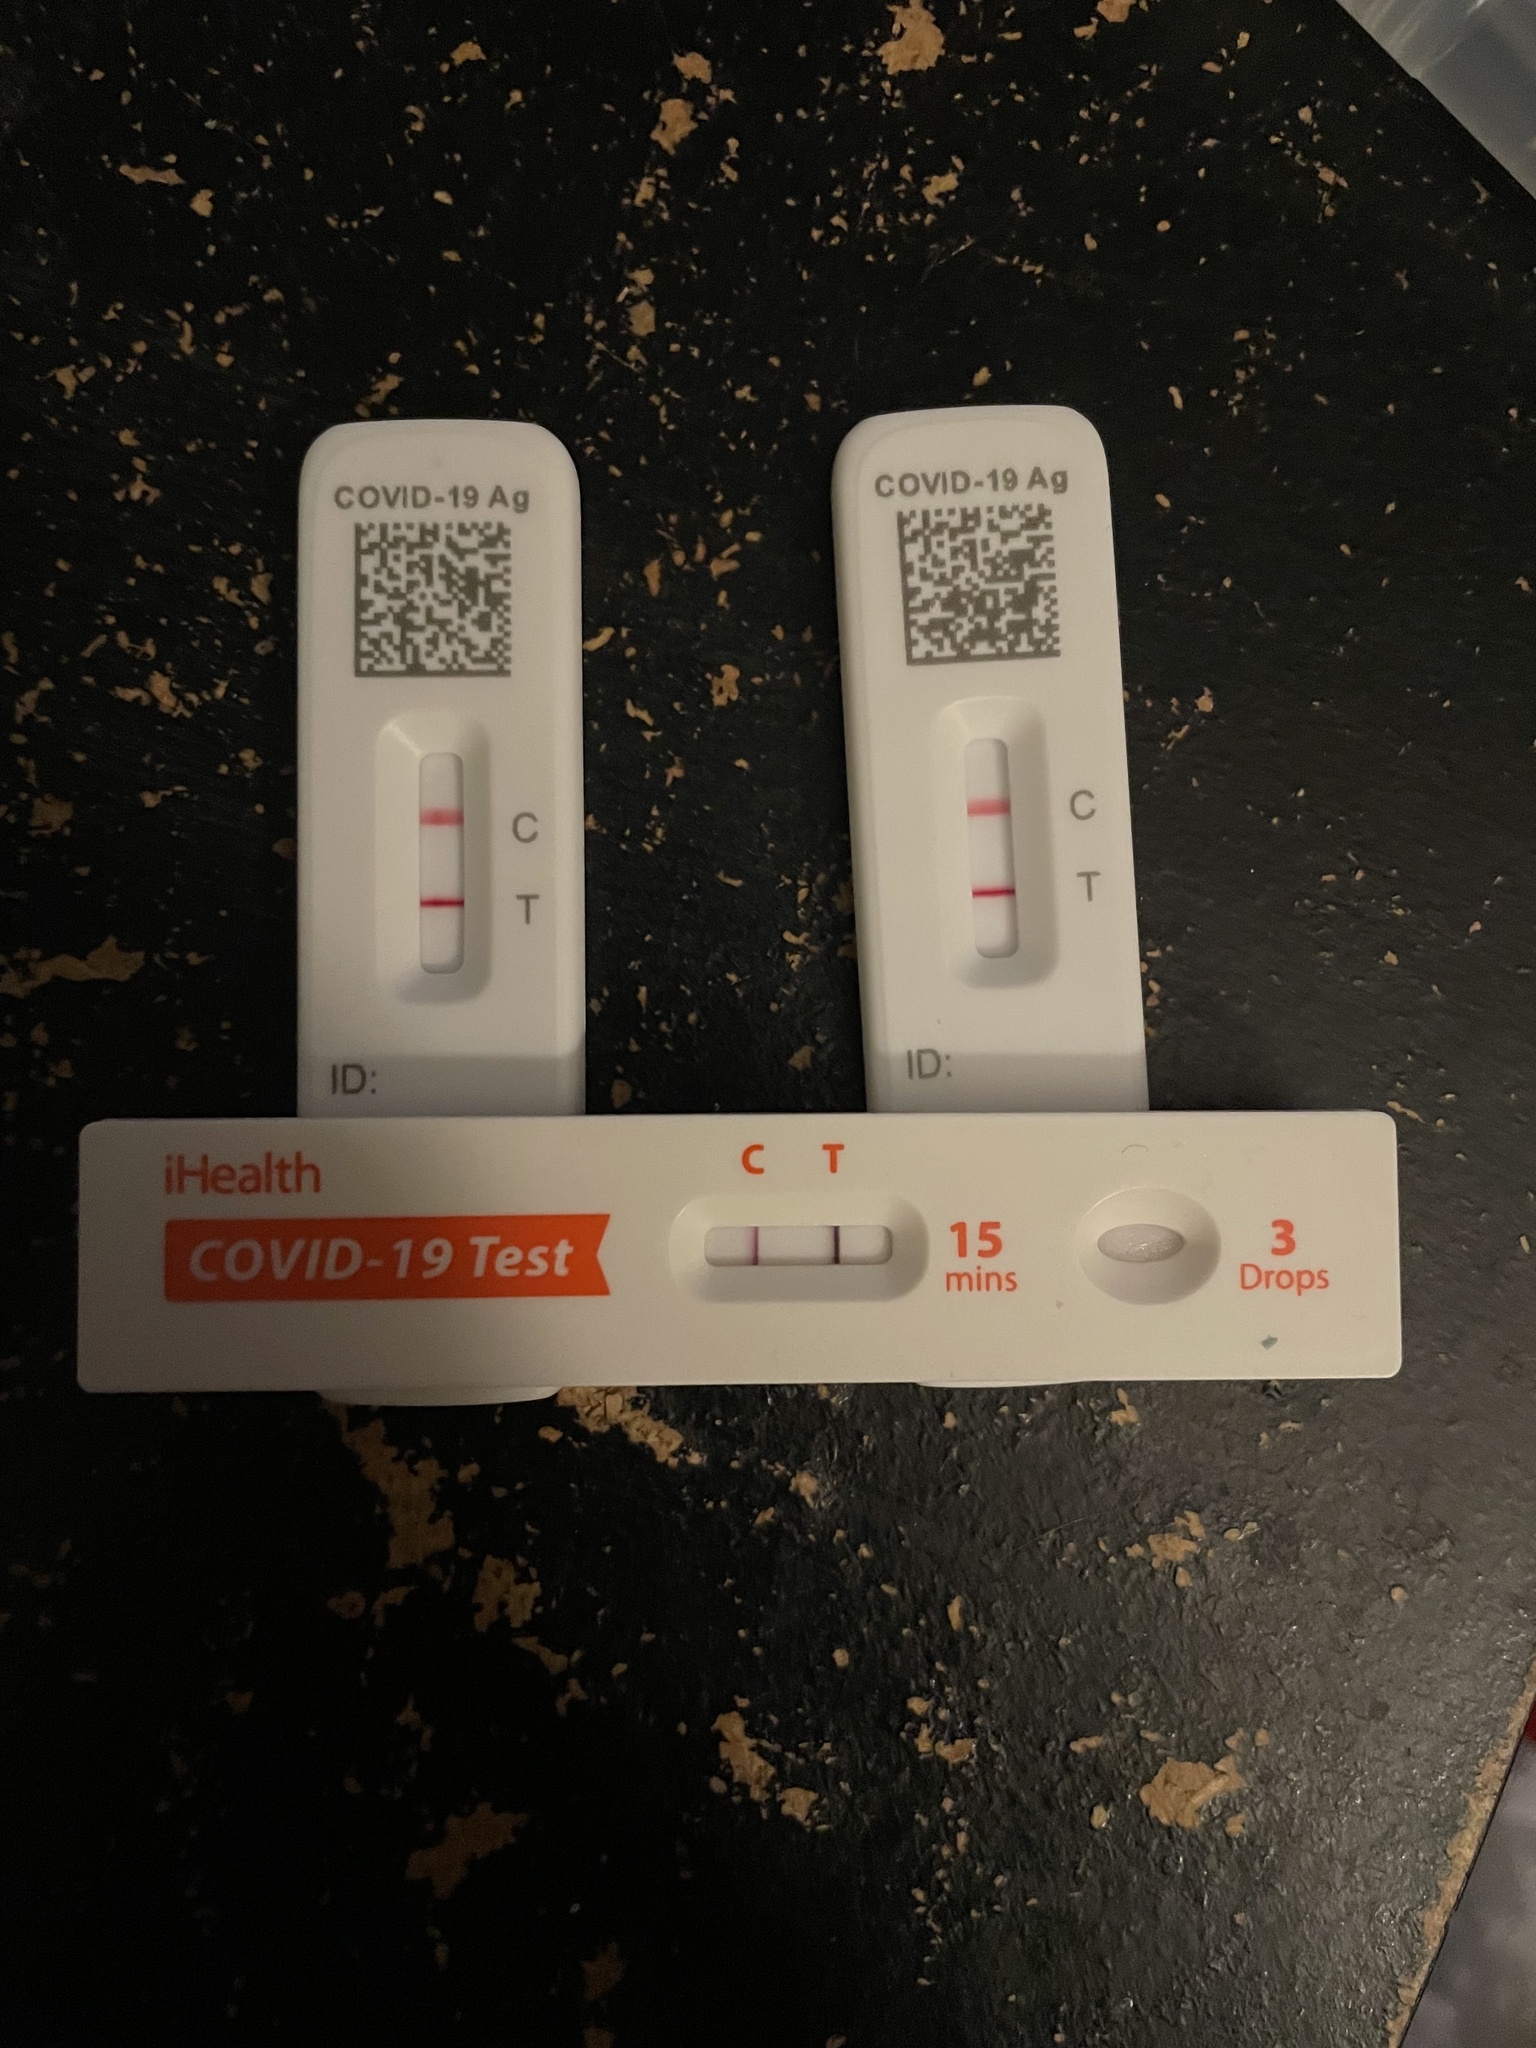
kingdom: Viruses
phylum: Pisuviricota
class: Pisoniviricetes
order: Nidovirales
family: Coronaviridae
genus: Betacoronavirus
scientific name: Betacoronavirus
